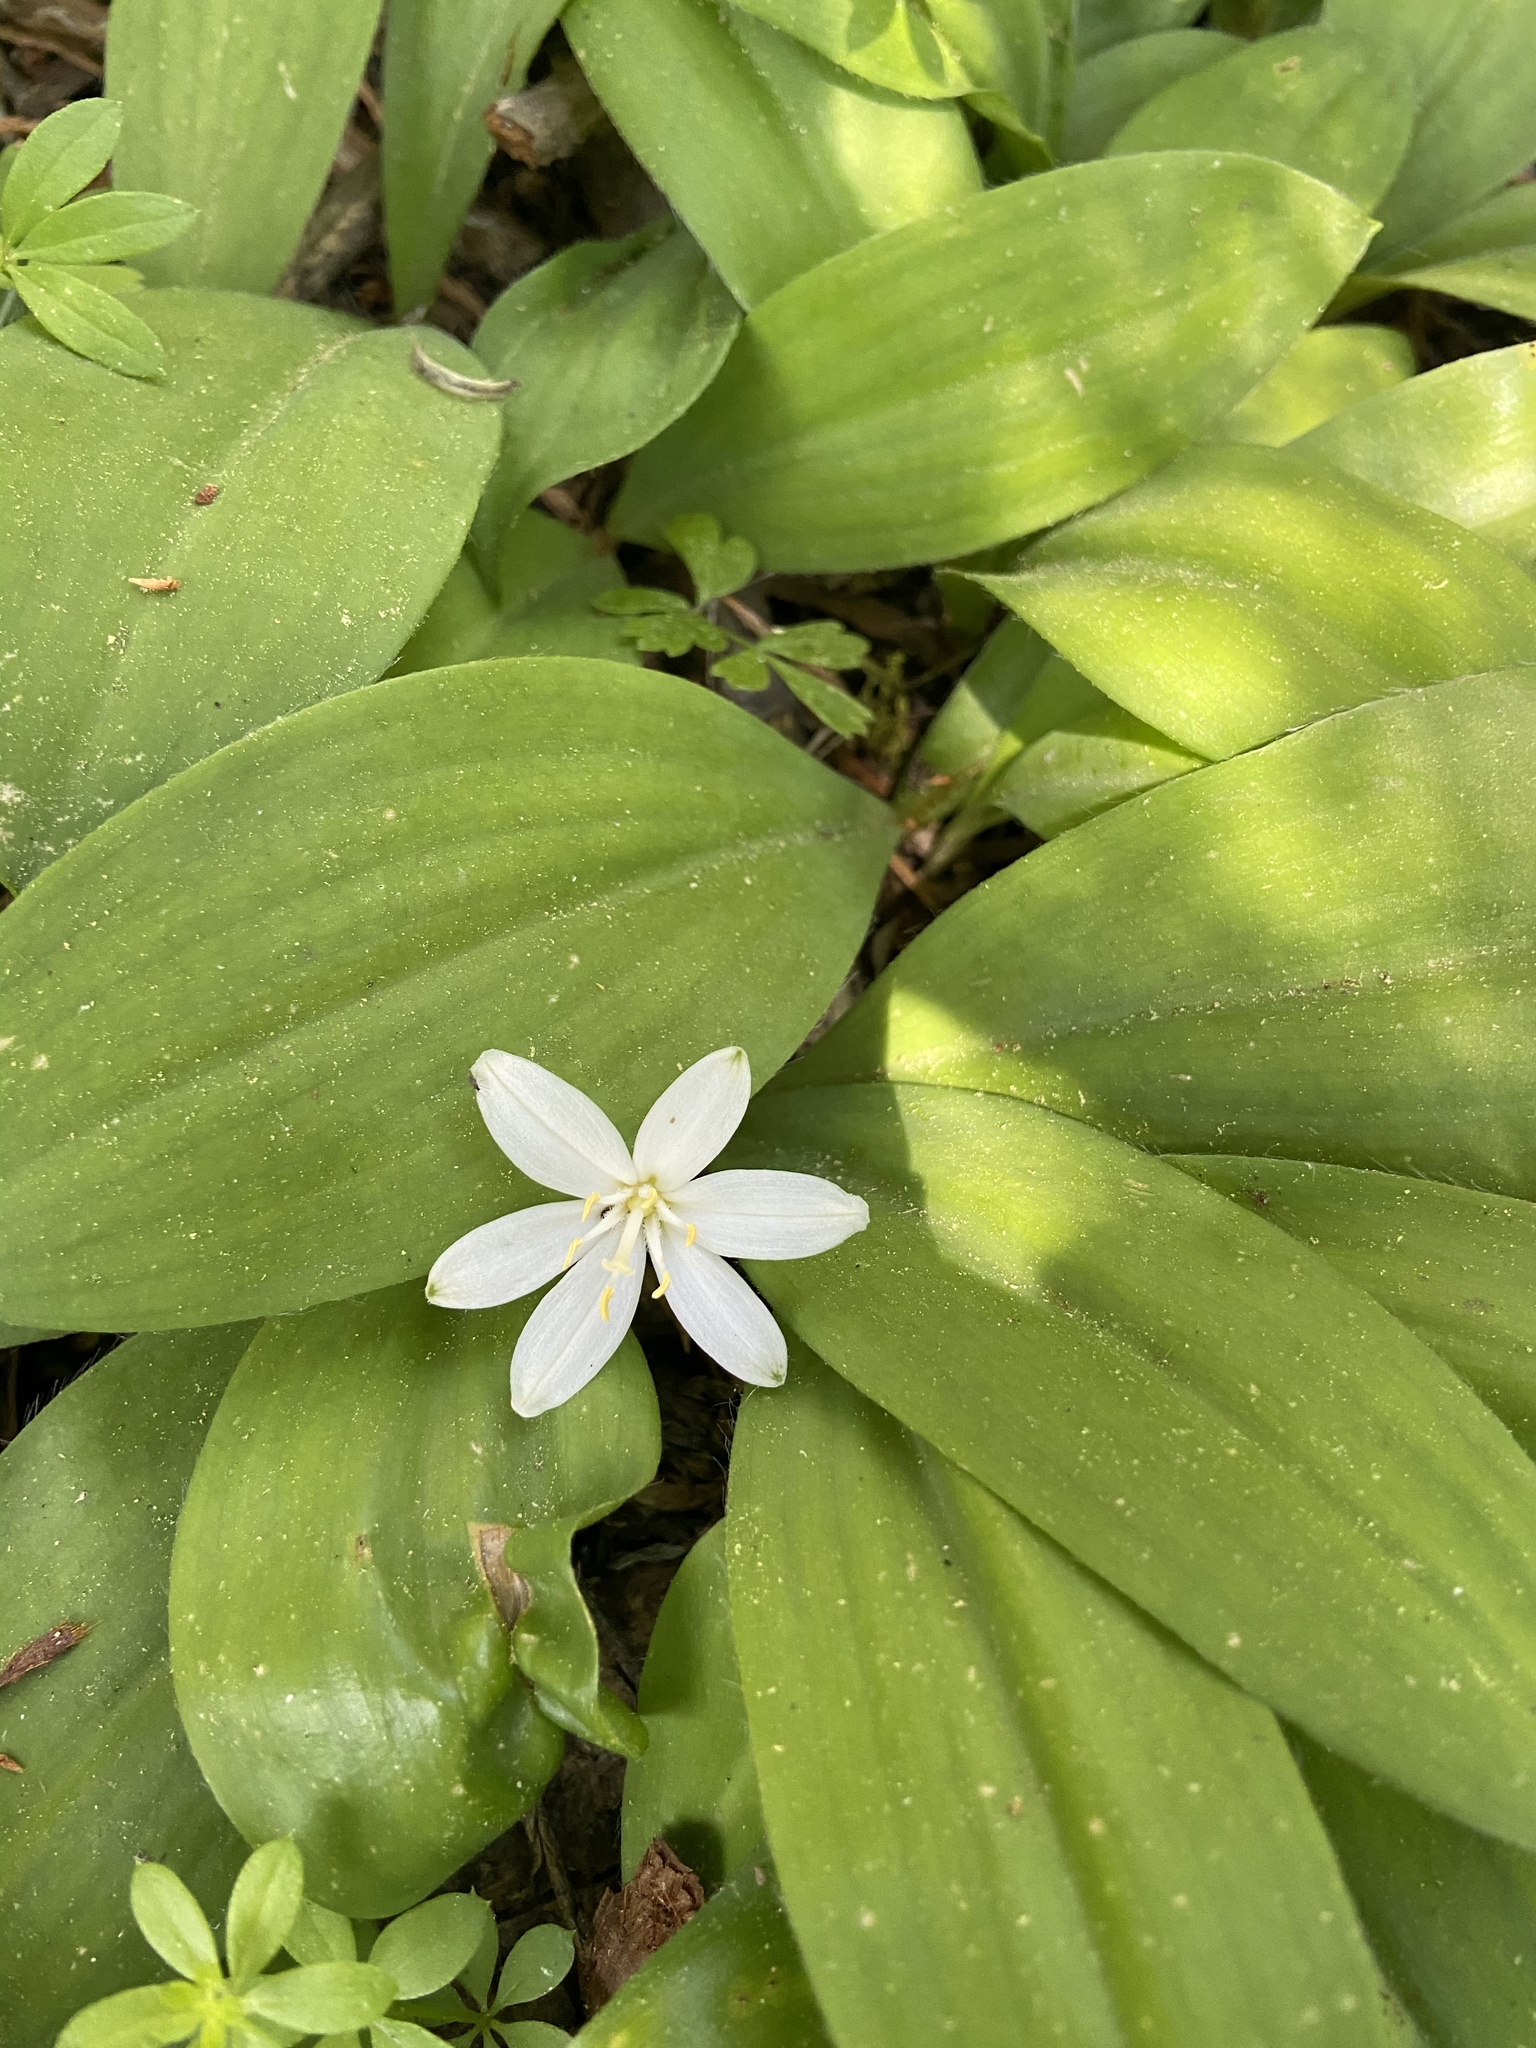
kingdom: Plantae
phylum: Tracheophyta
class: Liliopsida
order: Liliales
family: Liliaceae
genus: Clintonia
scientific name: Clintonia uniflora
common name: Queen's cup
